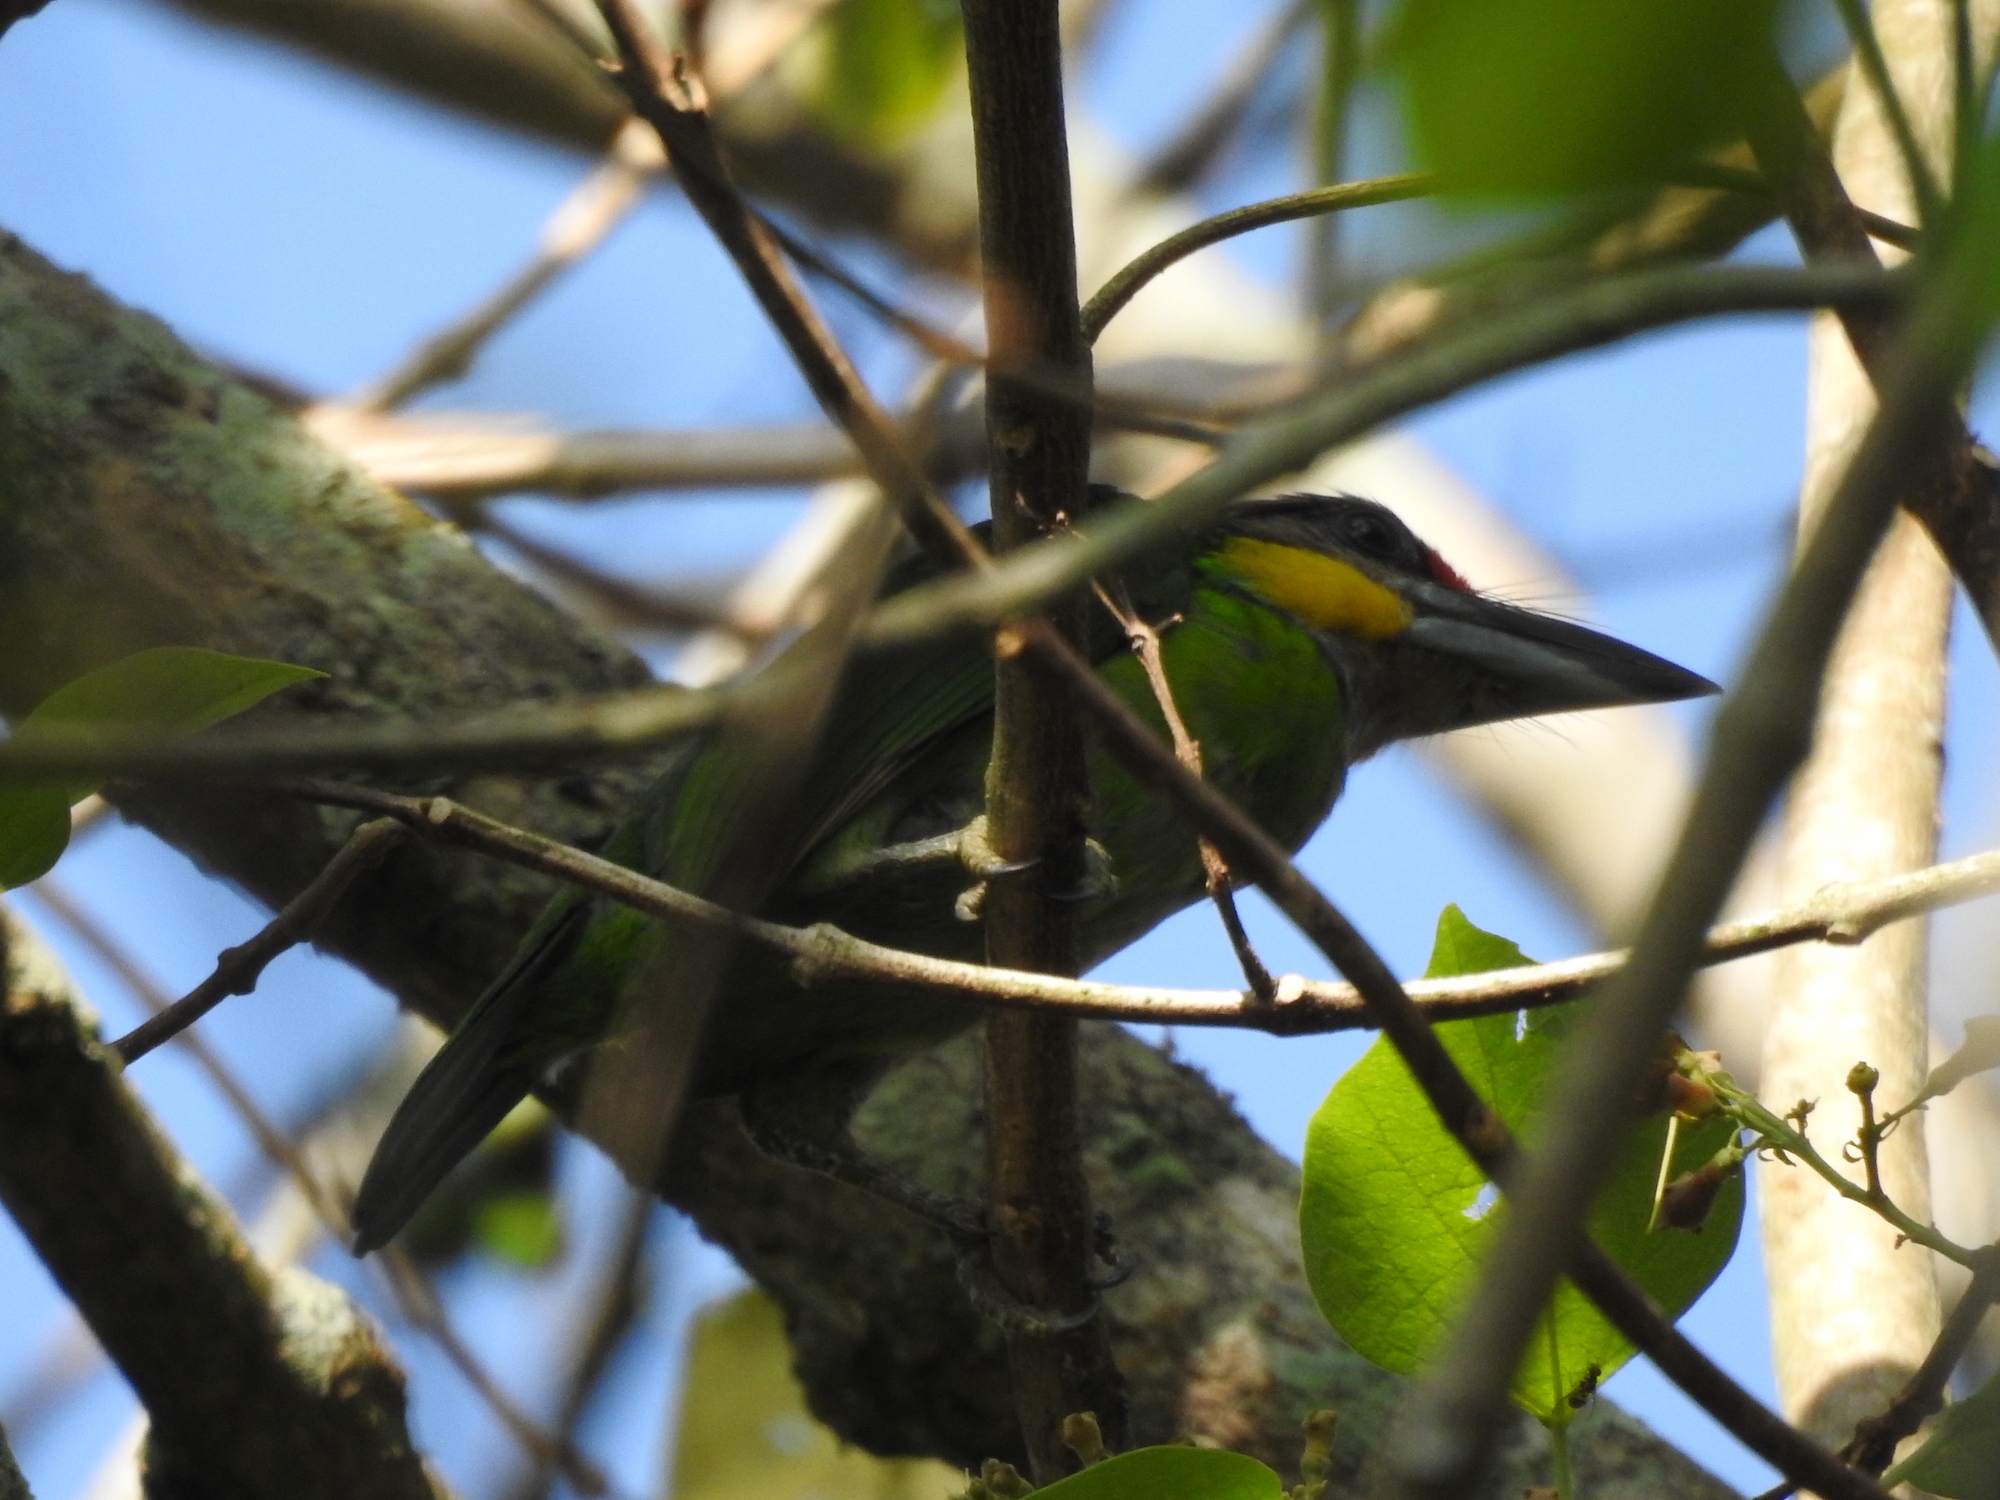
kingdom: Animalia
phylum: Chordata
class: Aves
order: Piciformes
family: Megalaimidae
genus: Psilopogon
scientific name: Psilopogon chrysopogon
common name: Golden-whiskered barbet
